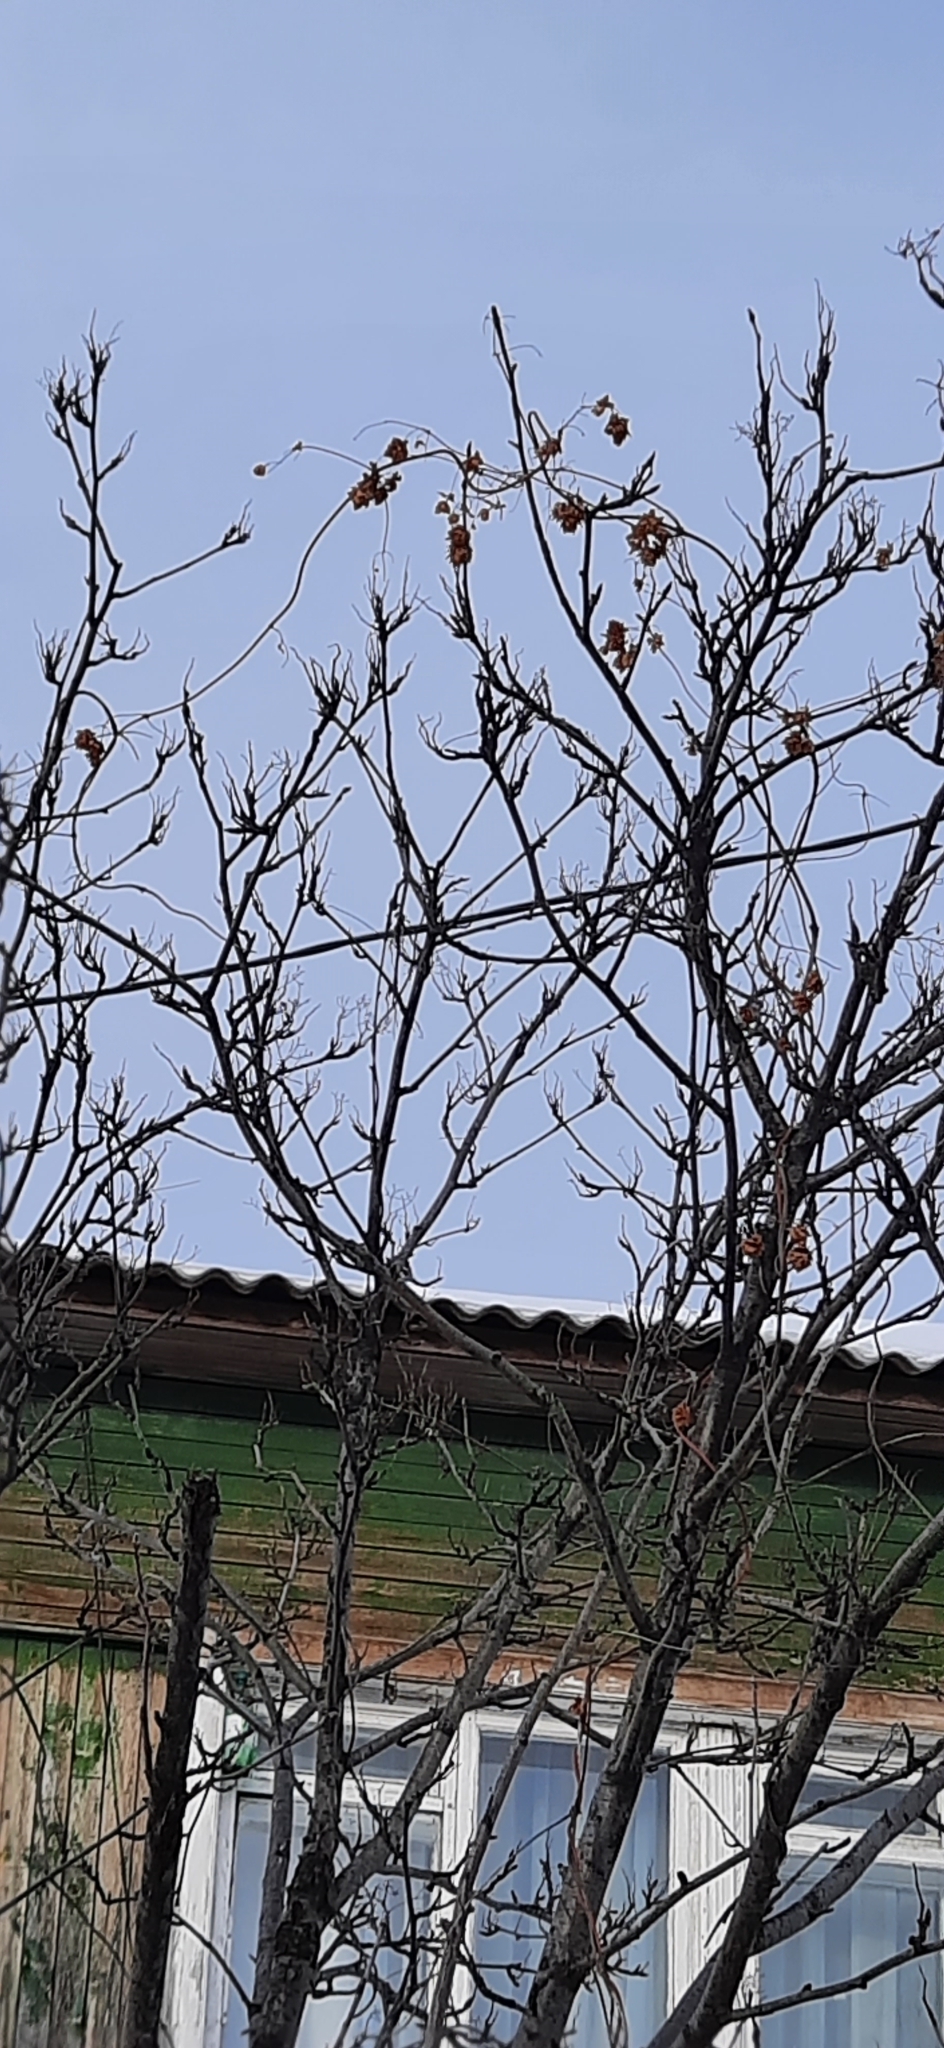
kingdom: Plantae
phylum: Tracheophyta
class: Magnoliopsida
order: Rosales
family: Cannabaceae
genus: Humulus
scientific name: Humulus lupulus
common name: Hop
